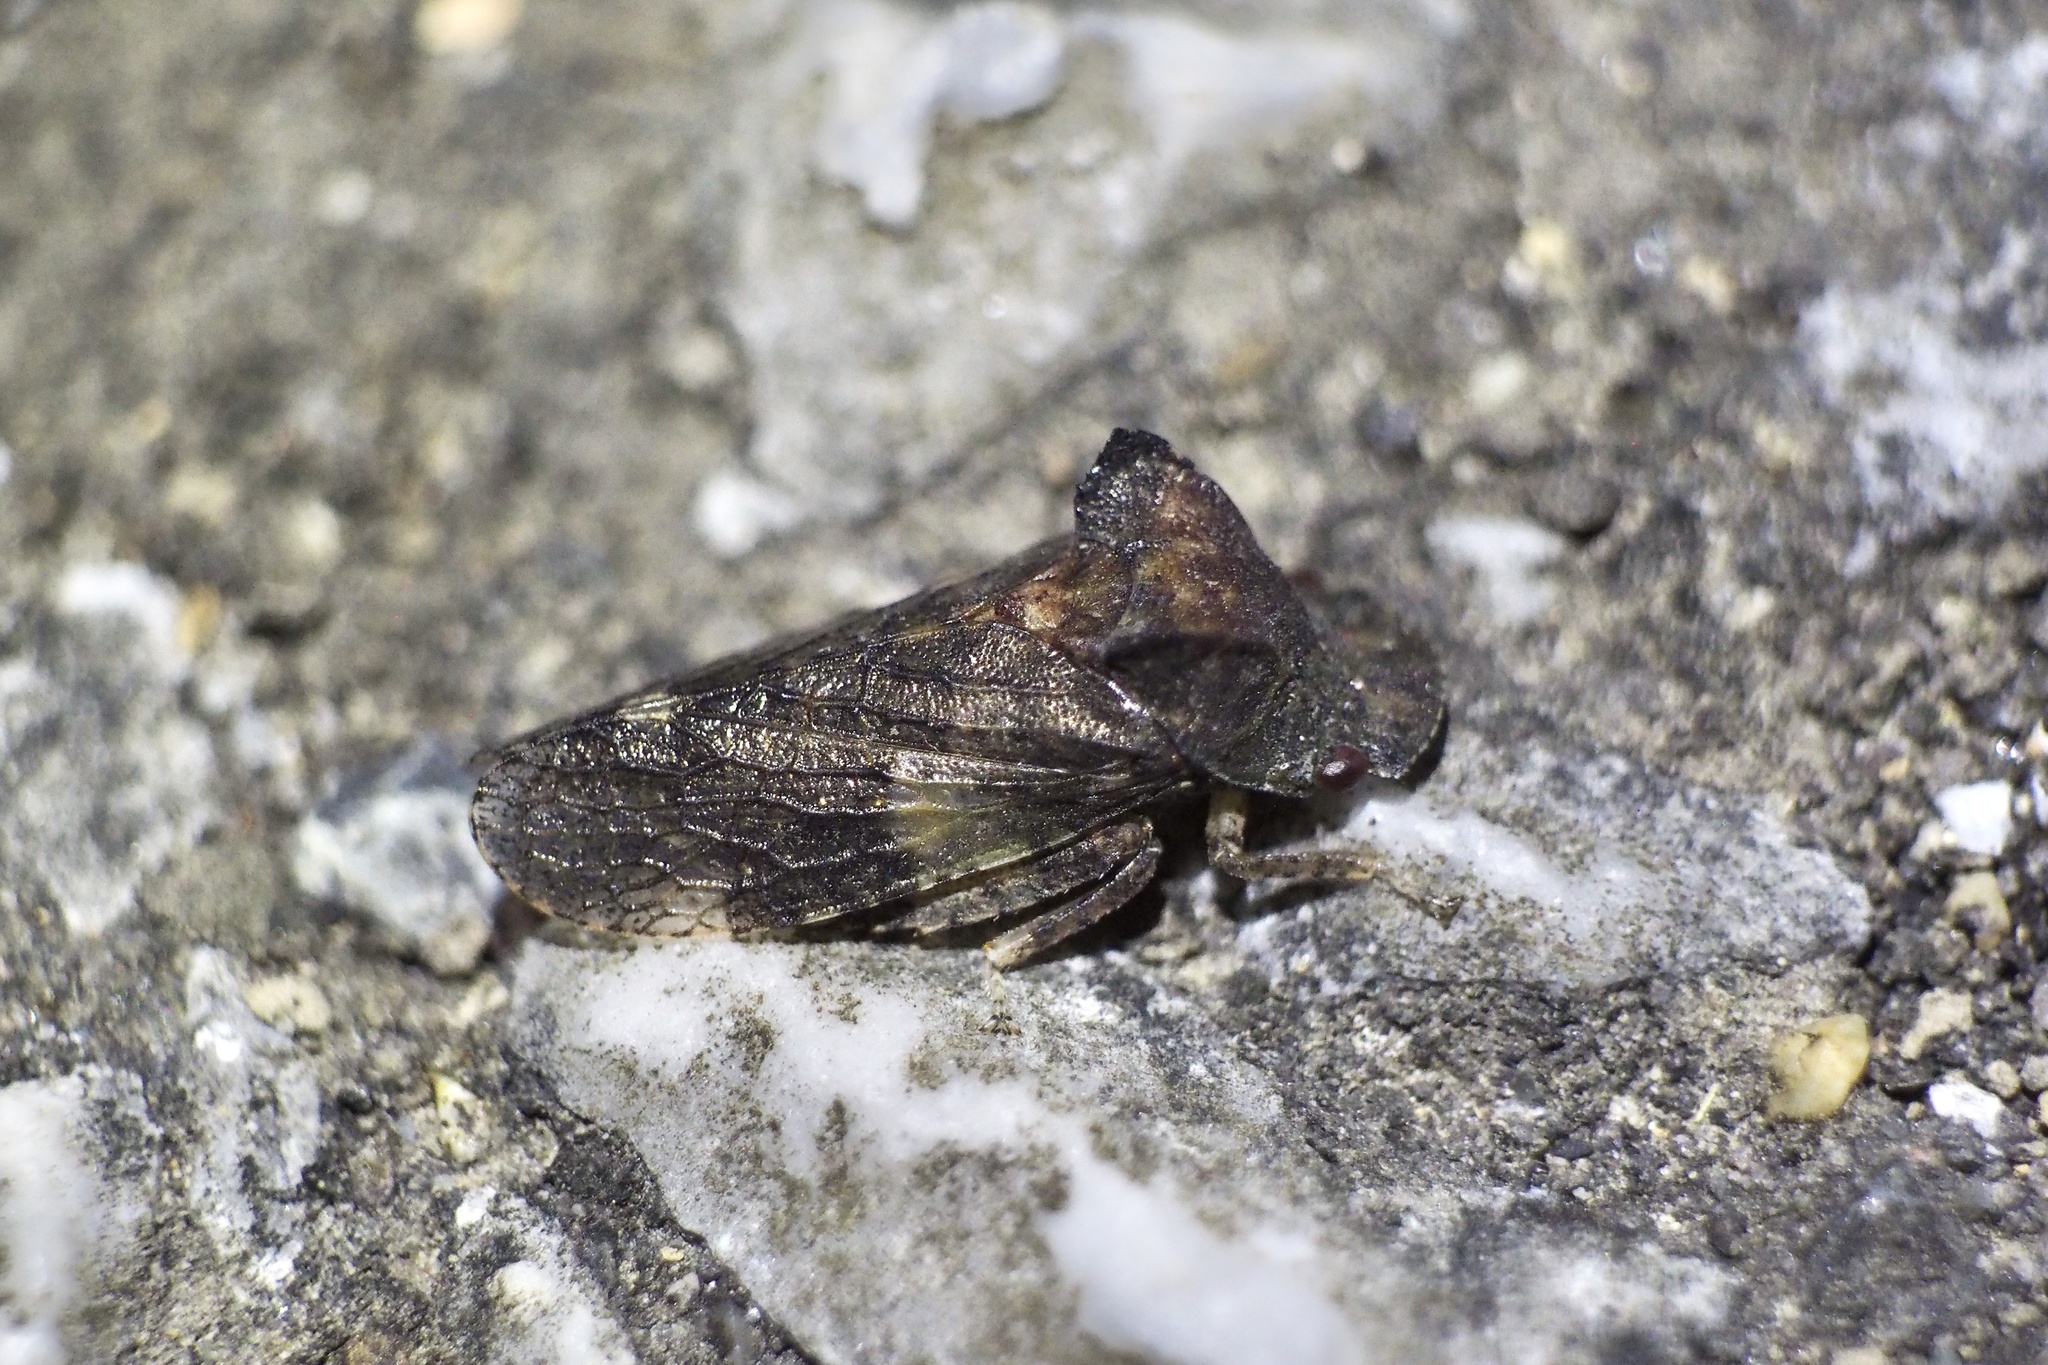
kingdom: Animalia
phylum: Arthropoda
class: Insecta
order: Hemiptera
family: Cicadellidae
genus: Ledra
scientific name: Ledra auditura
